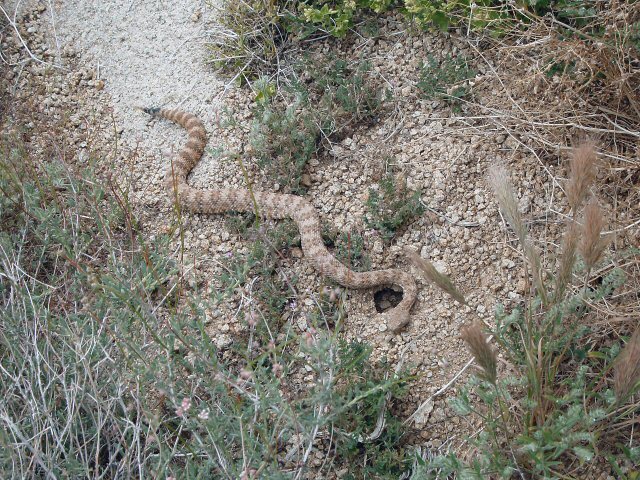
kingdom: Animalia
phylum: Chordata
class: Squamata
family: Viperidae
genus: Crotalus
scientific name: Crotalus pyrrhus
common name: Southwestern speckled rattlesnake
